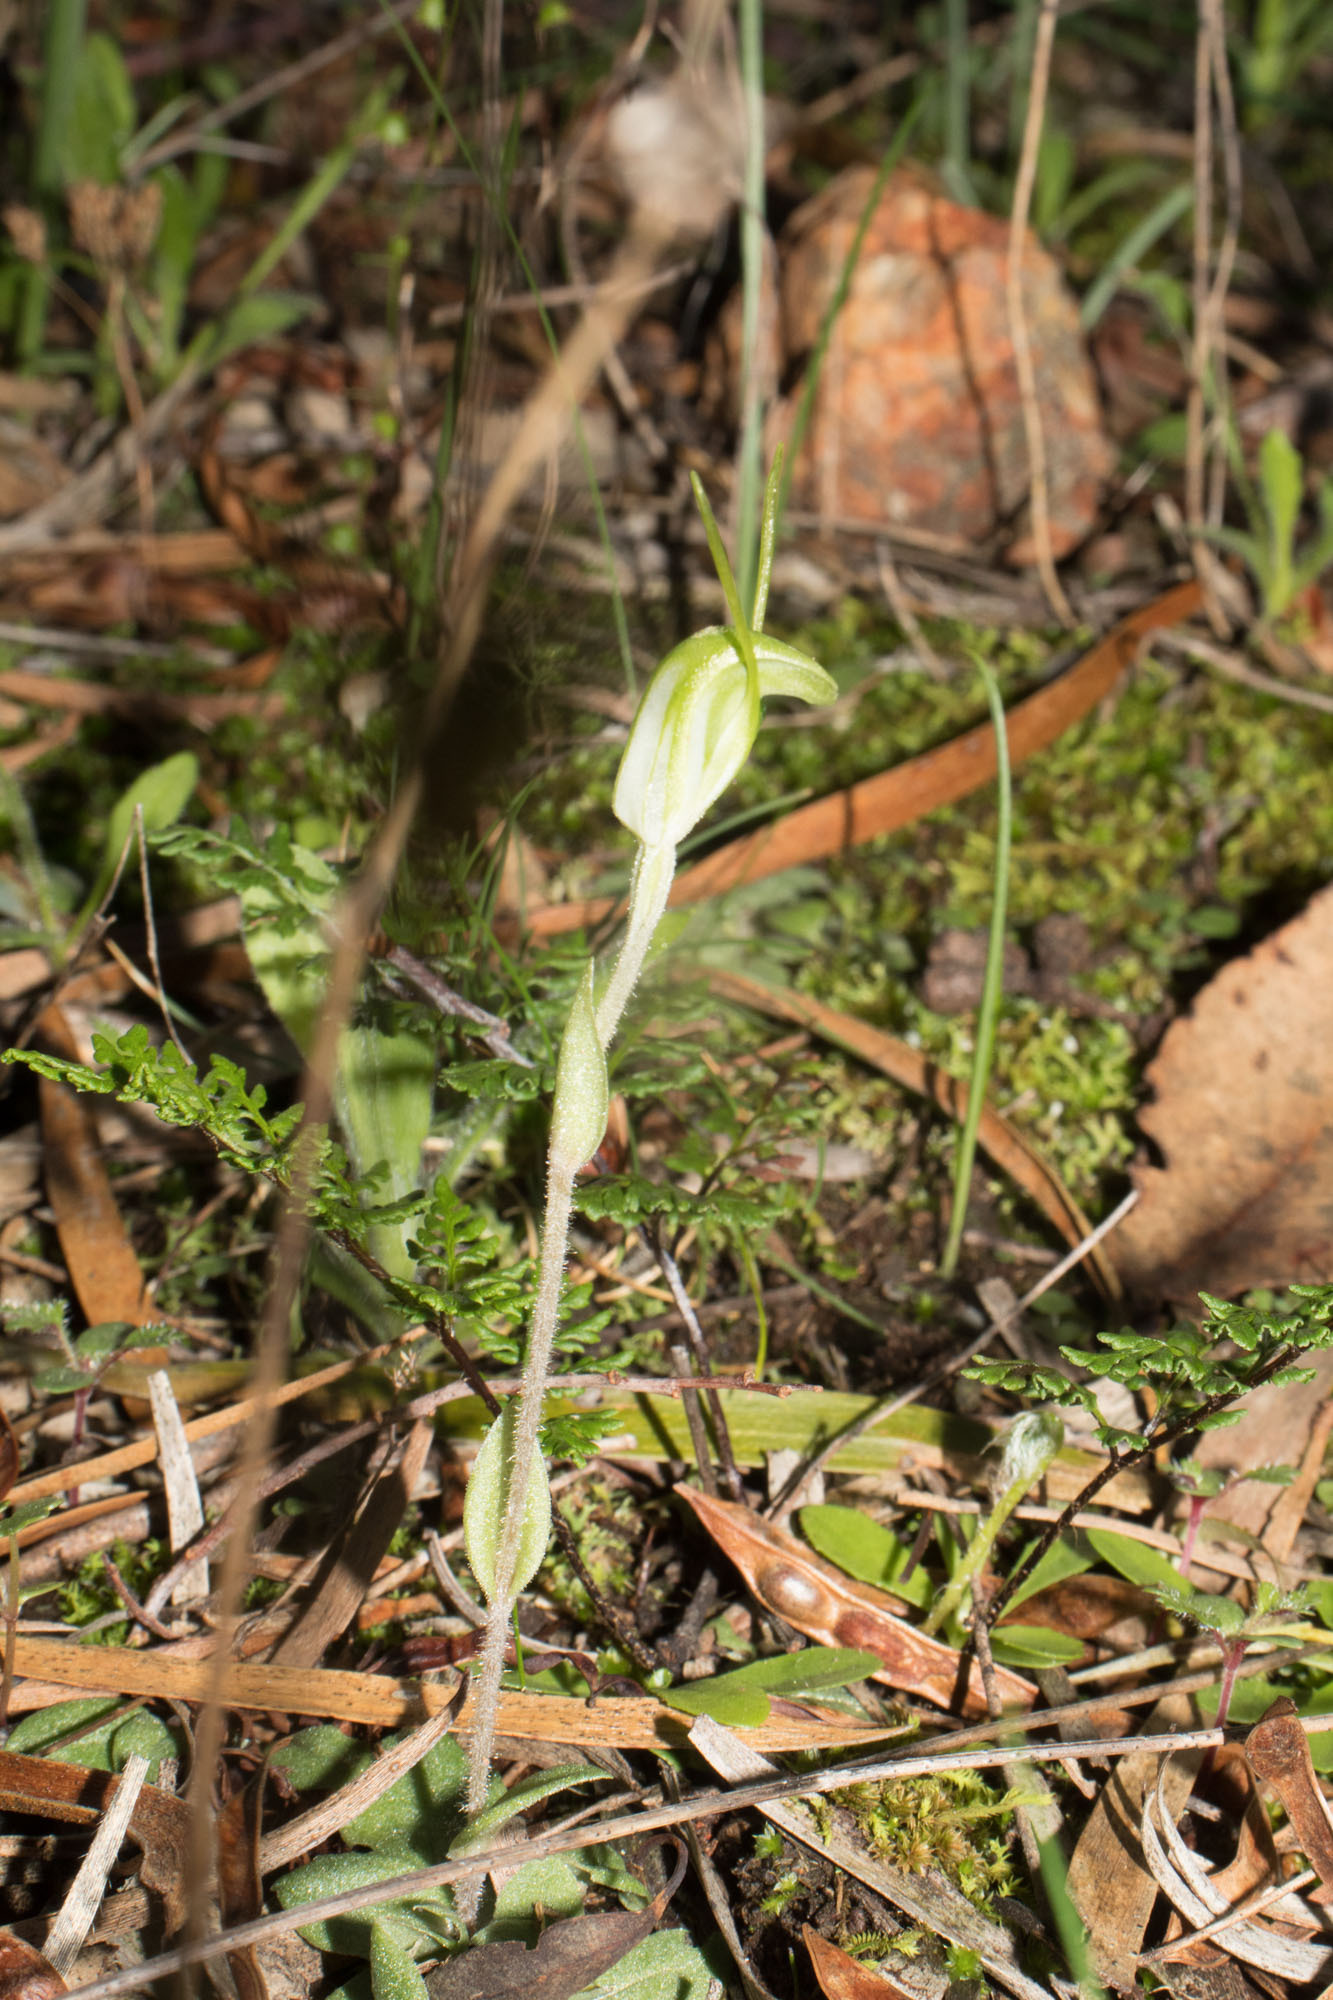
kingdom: Plantae
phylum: Tracheophyta
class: Liliopsida
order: Asparagales
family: Orchidaceae
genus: Pterostylis
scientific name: Pterostylis setulosa
